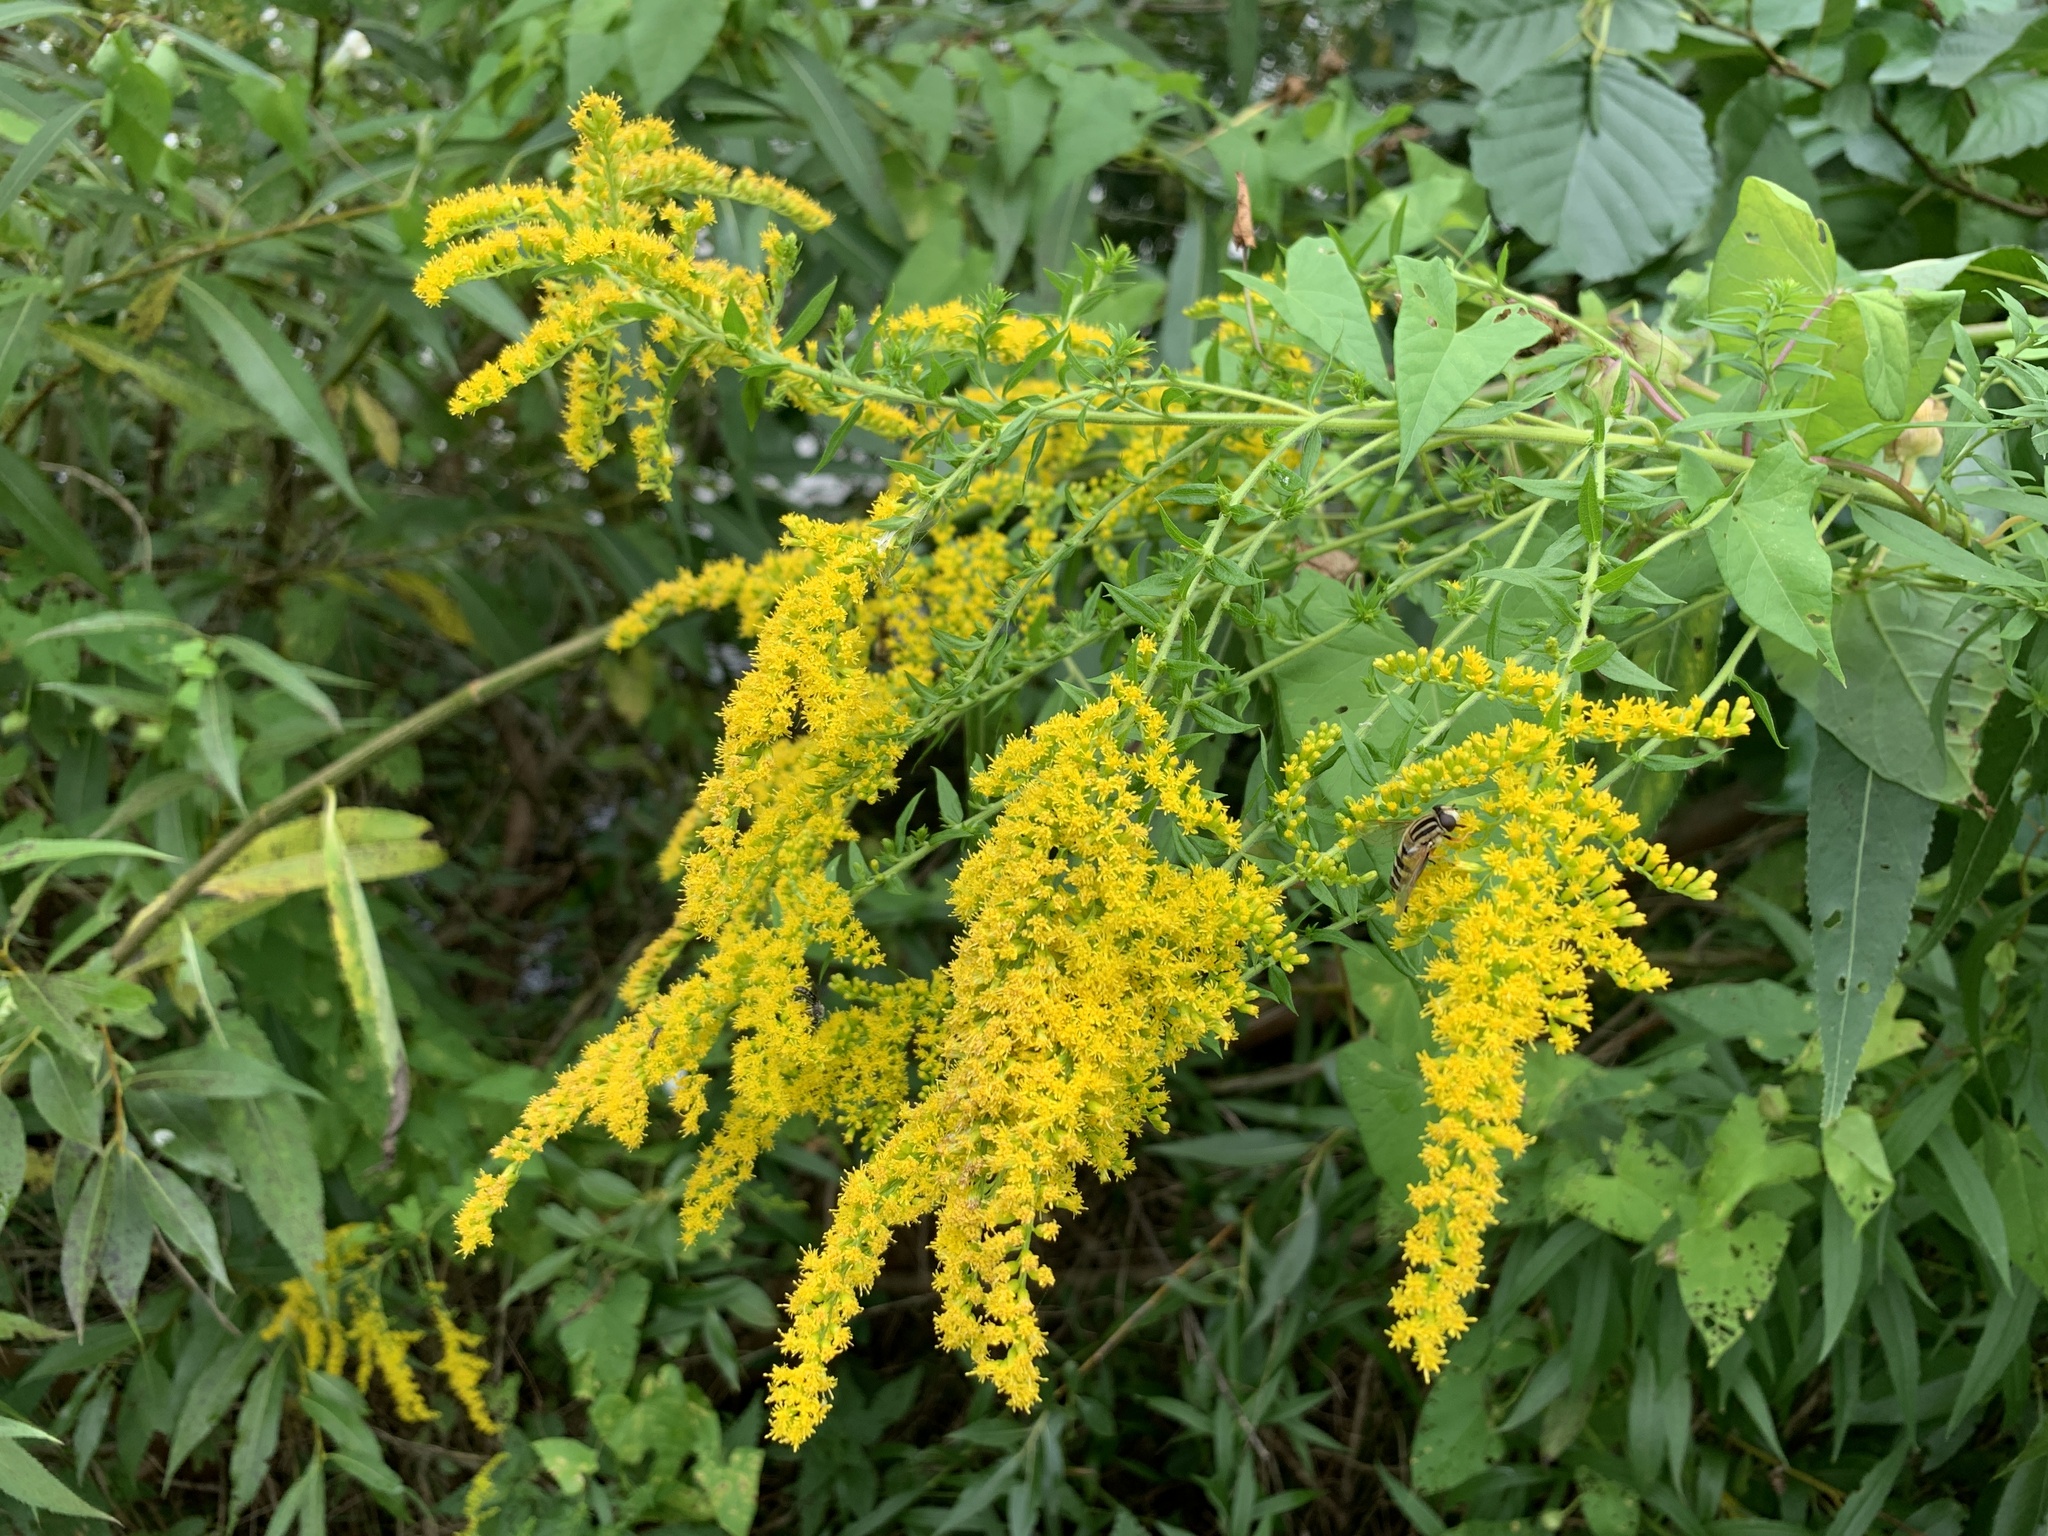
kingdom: Plantae
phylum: Tracheophyta
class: Magnoliopsida
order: Asterales
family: Asteraceae
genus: Solidago
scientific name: Solidago canadensis
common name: Canada goldenrod
